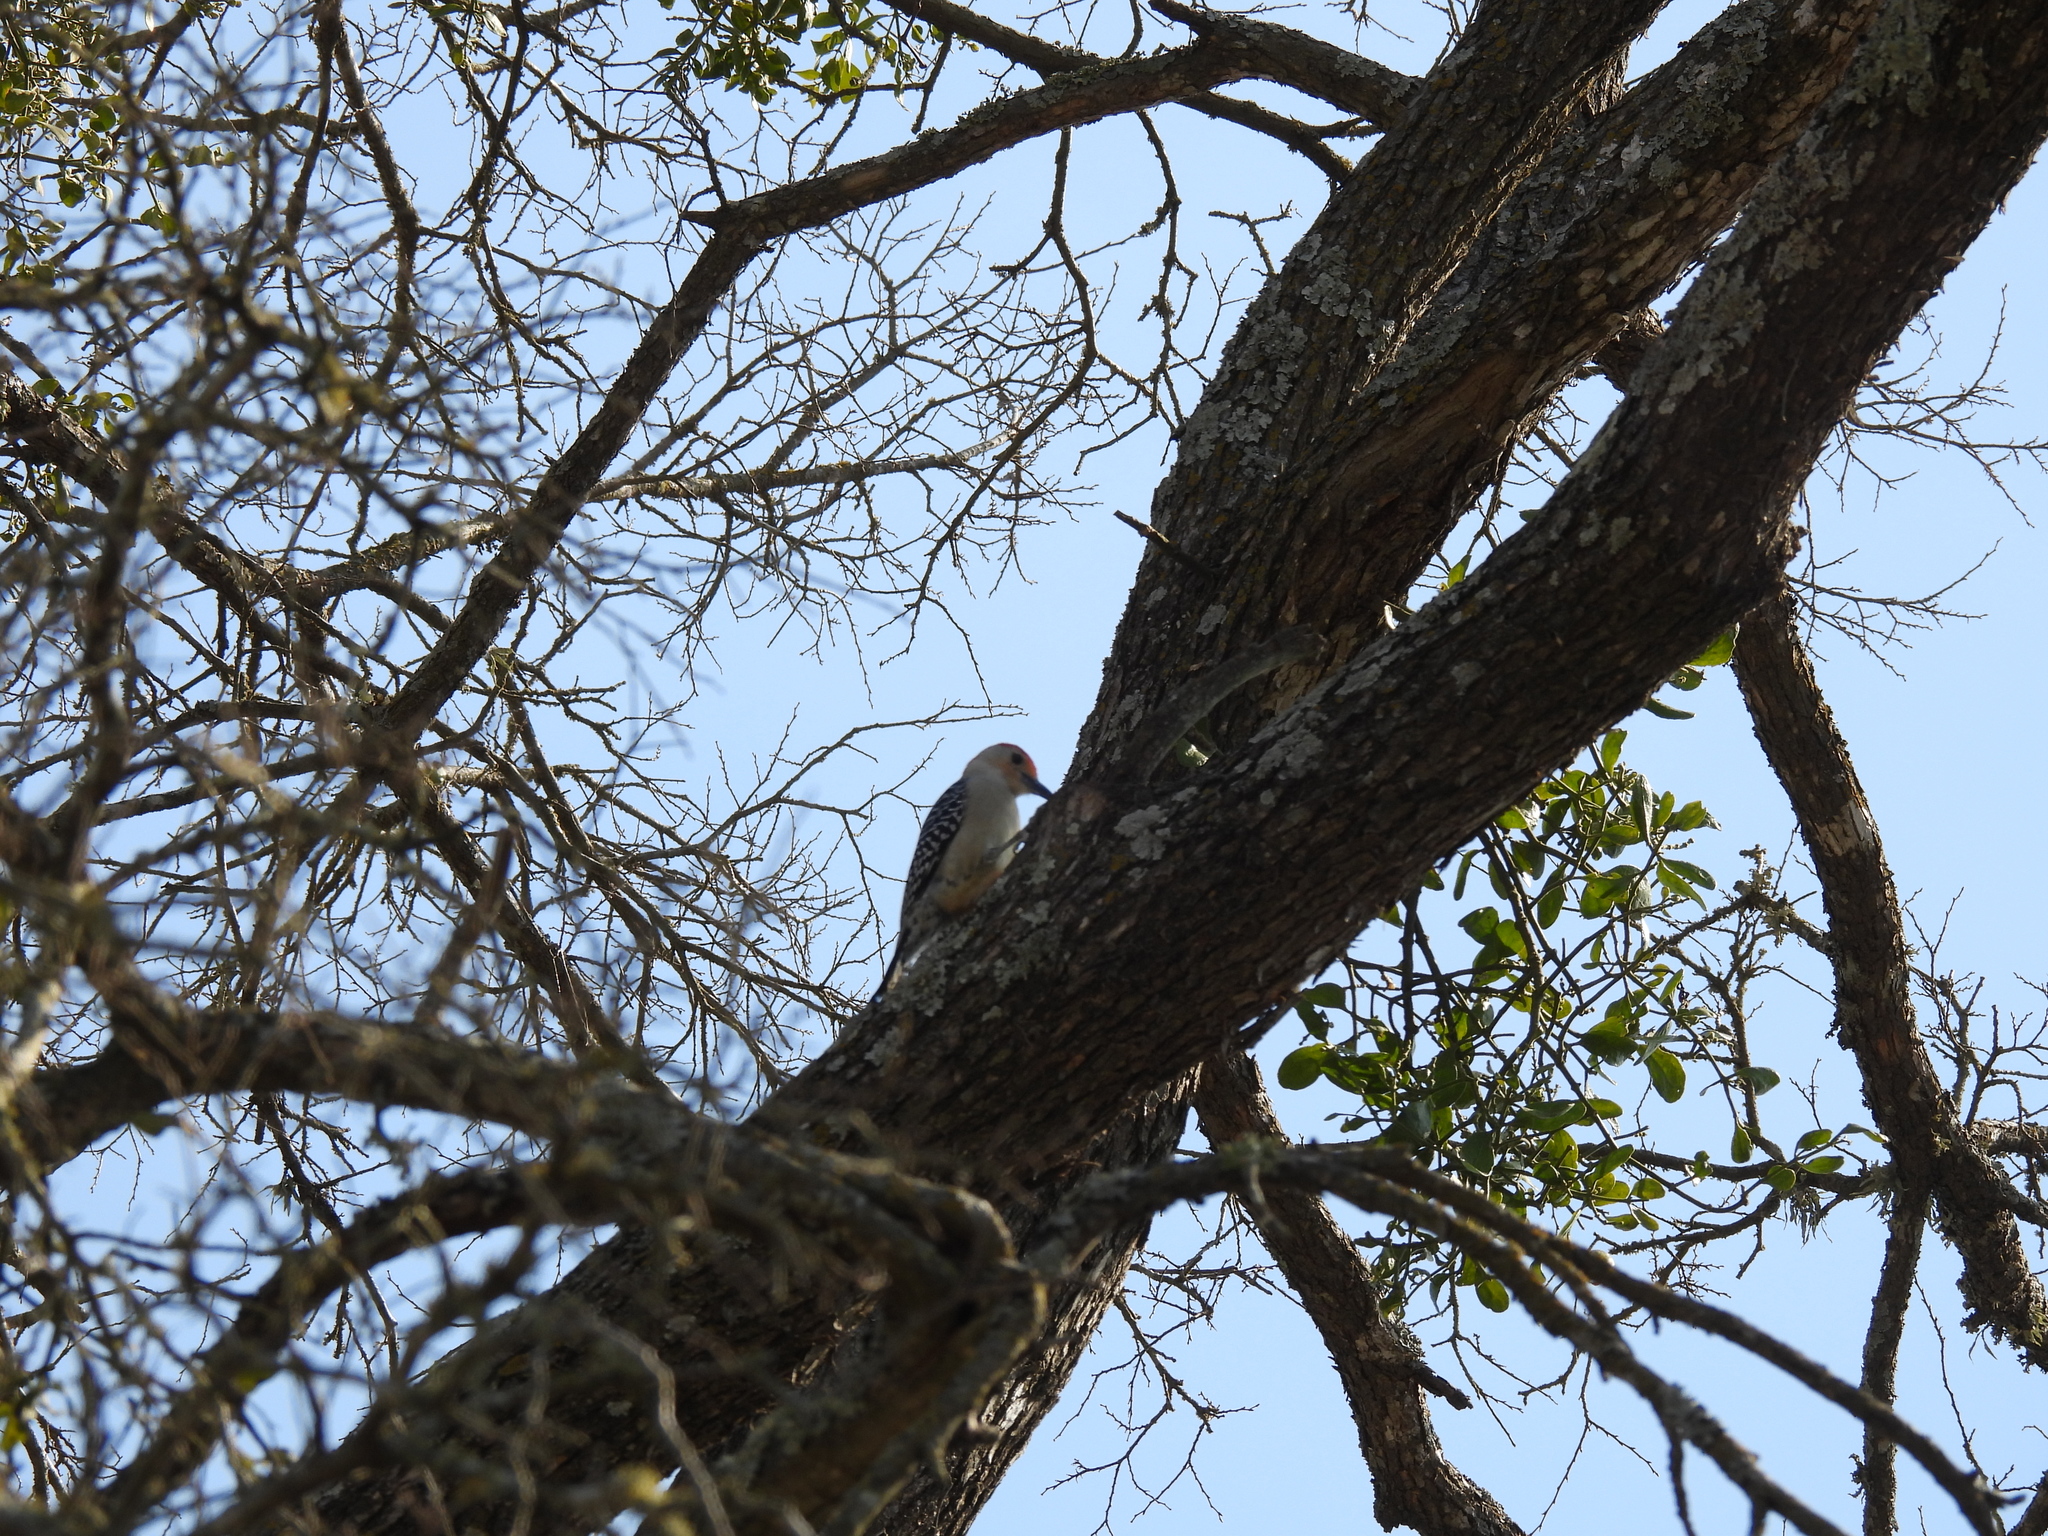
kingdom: Animalia
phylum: Chordata
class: Aves
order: Piciformes
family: Picidae
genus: Melanerpes
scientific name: Melanerpes aurifrons
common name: Golden-fronted woodpecker
